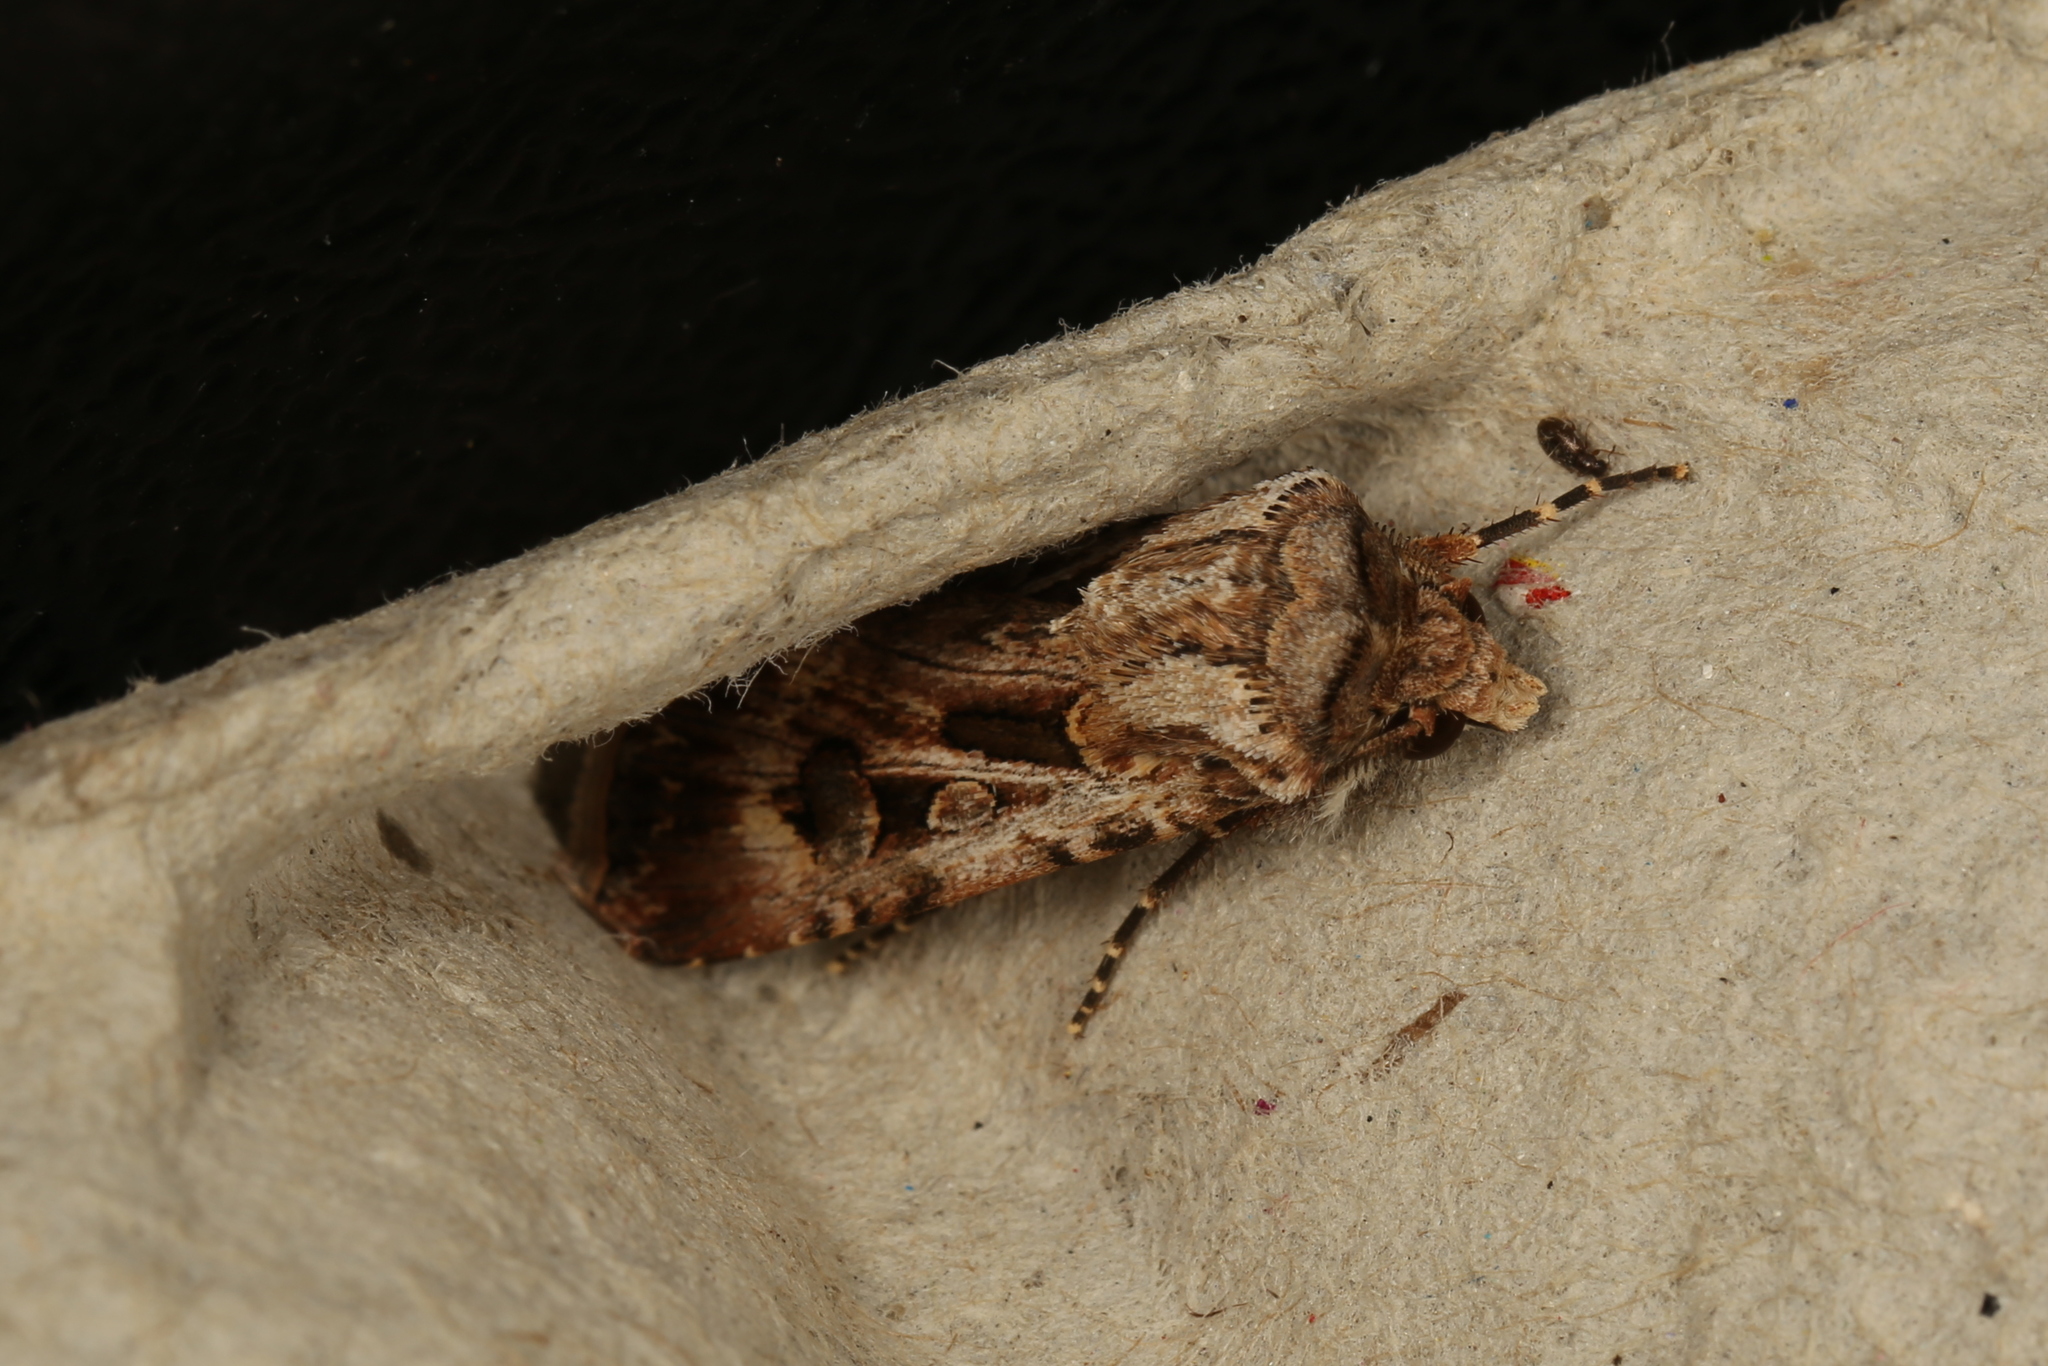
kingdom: Animalia
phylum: Arthropoda
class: Insecta
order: Lepidoptera
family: Noctuidae
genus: Agrotis
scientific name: Agrotis munda
